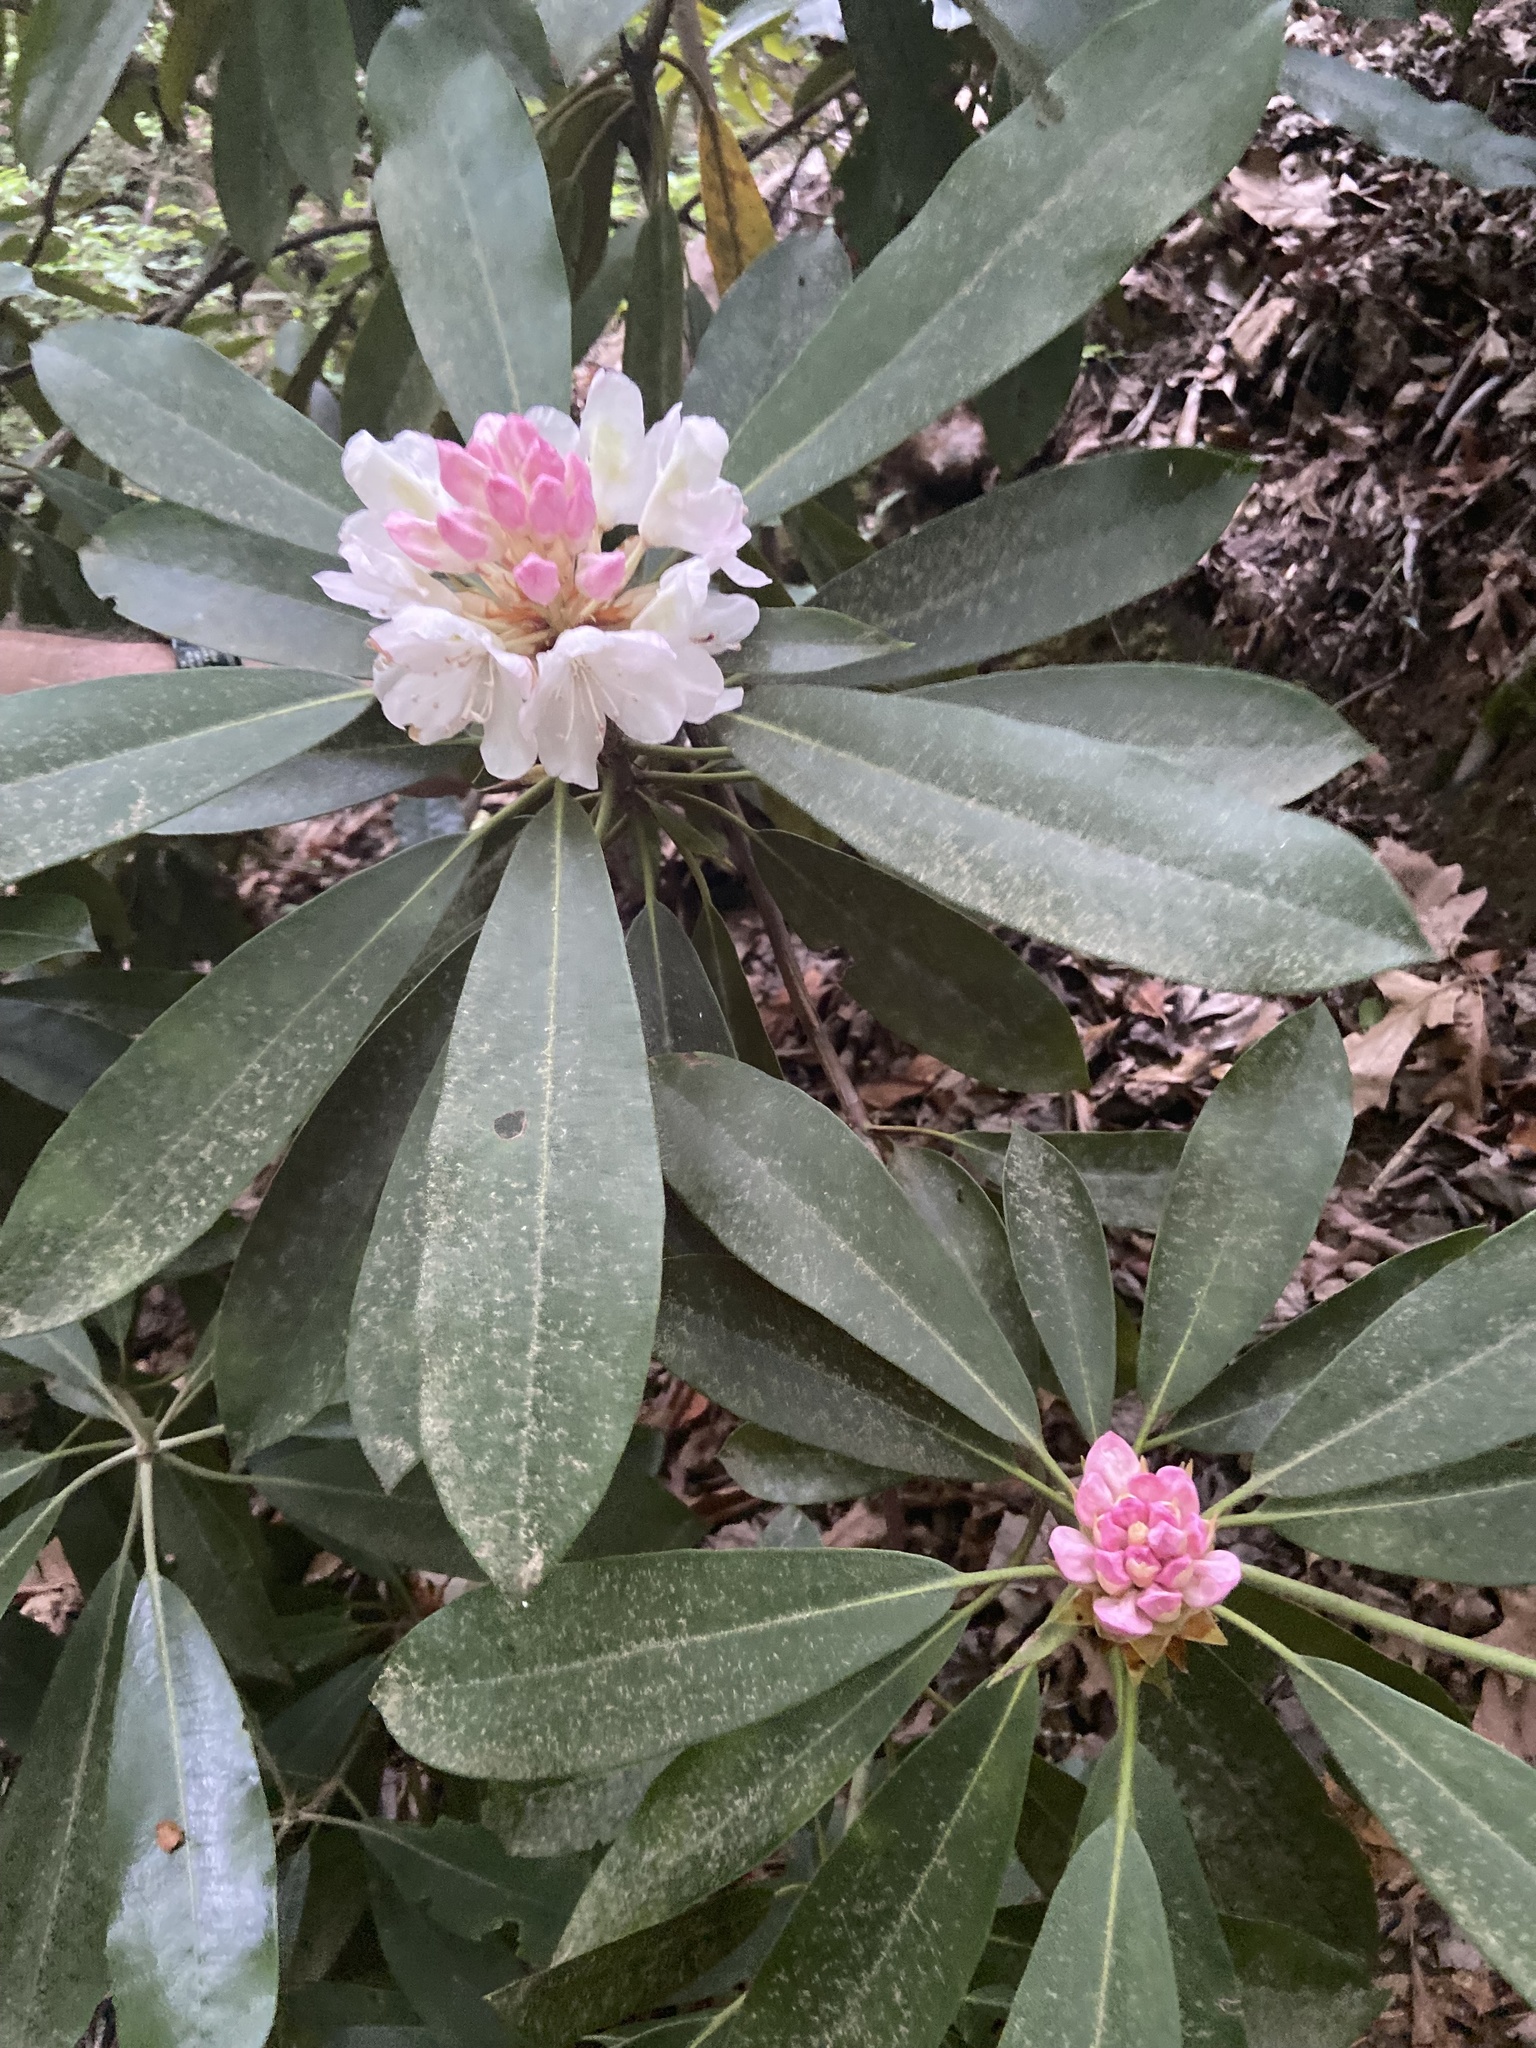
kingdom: Plantae
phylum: Tracheophyta
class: Magnoliopsida
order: Ericales
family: Ericaceae
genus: Rhododendron
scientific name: Rhododendron maximum
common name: Great rhododendron
